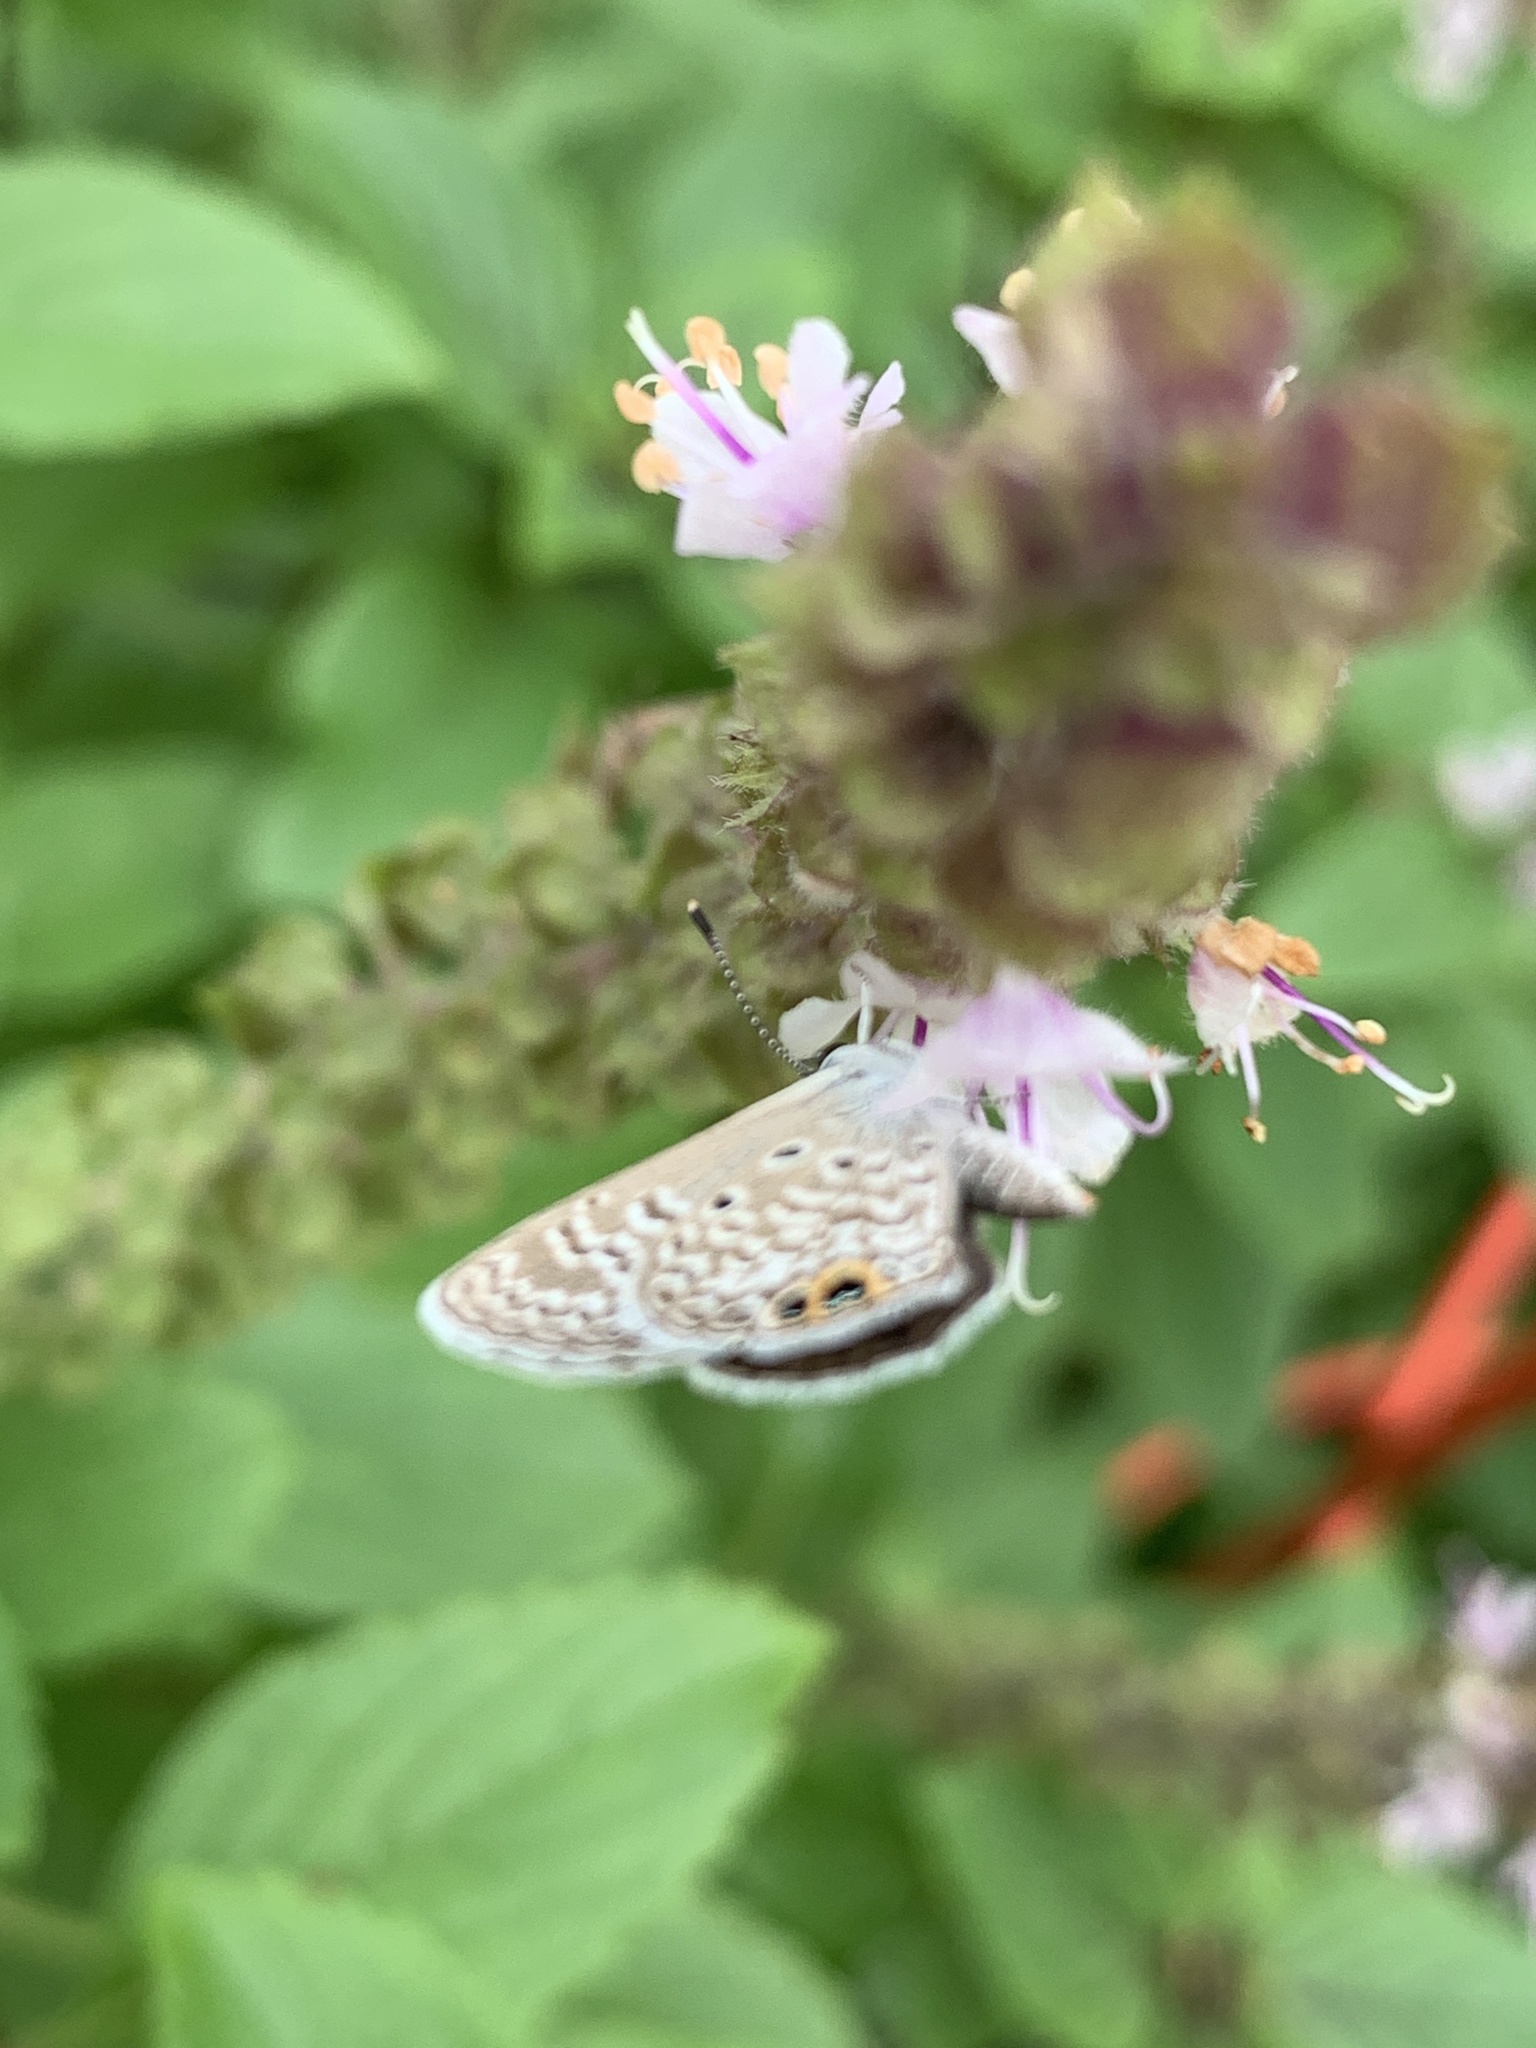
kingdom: Animalia
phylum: Arthropoda
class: Insecta
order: Lepidoptera
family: Lycaenidae
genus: Hemiargus
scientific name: Hemiargus ceraunus
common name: Ceraunus blue
